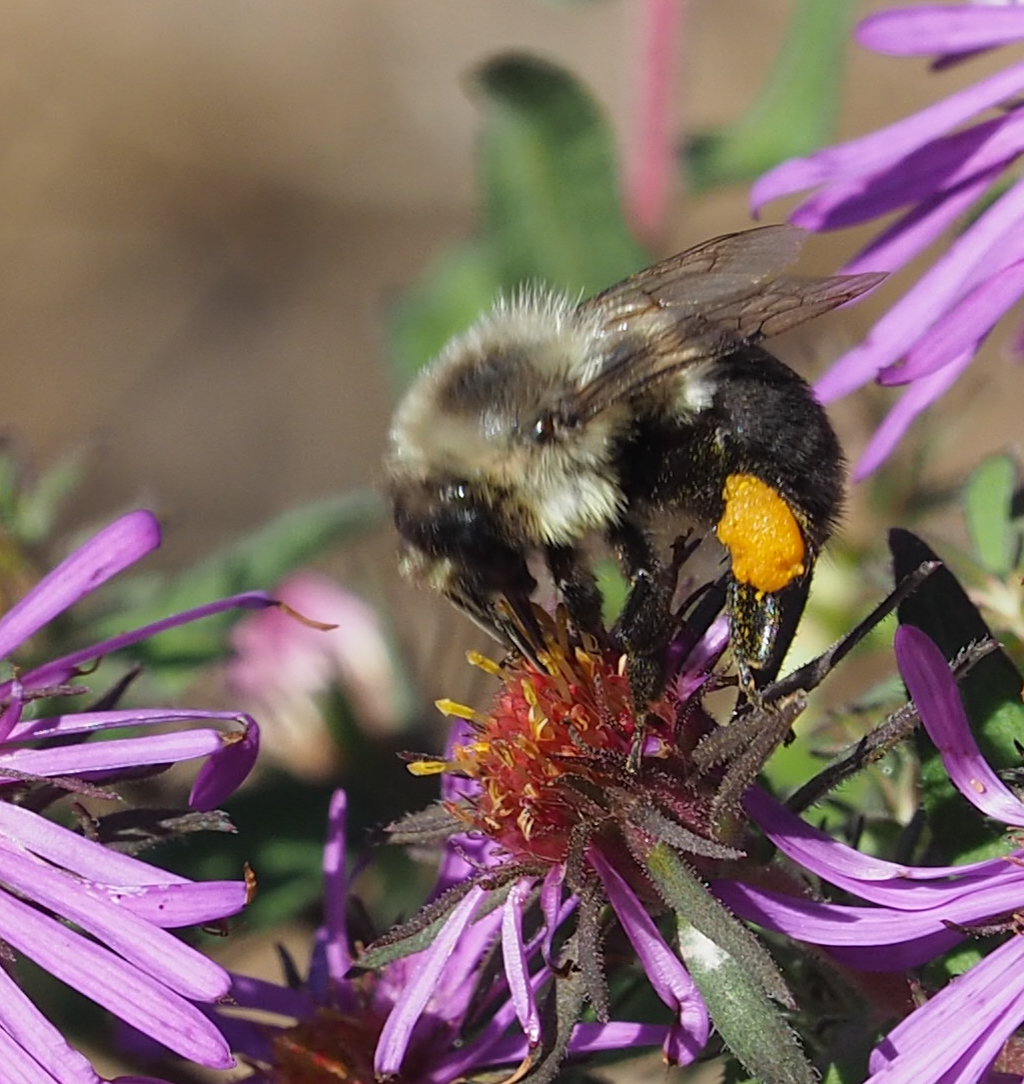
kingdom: Animalia
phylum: Arthropoda
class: Insecta
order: Hymenoptera
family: Apidae
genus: Bombus
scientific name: Bombus impatiens
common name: Common eastern bumble bee
